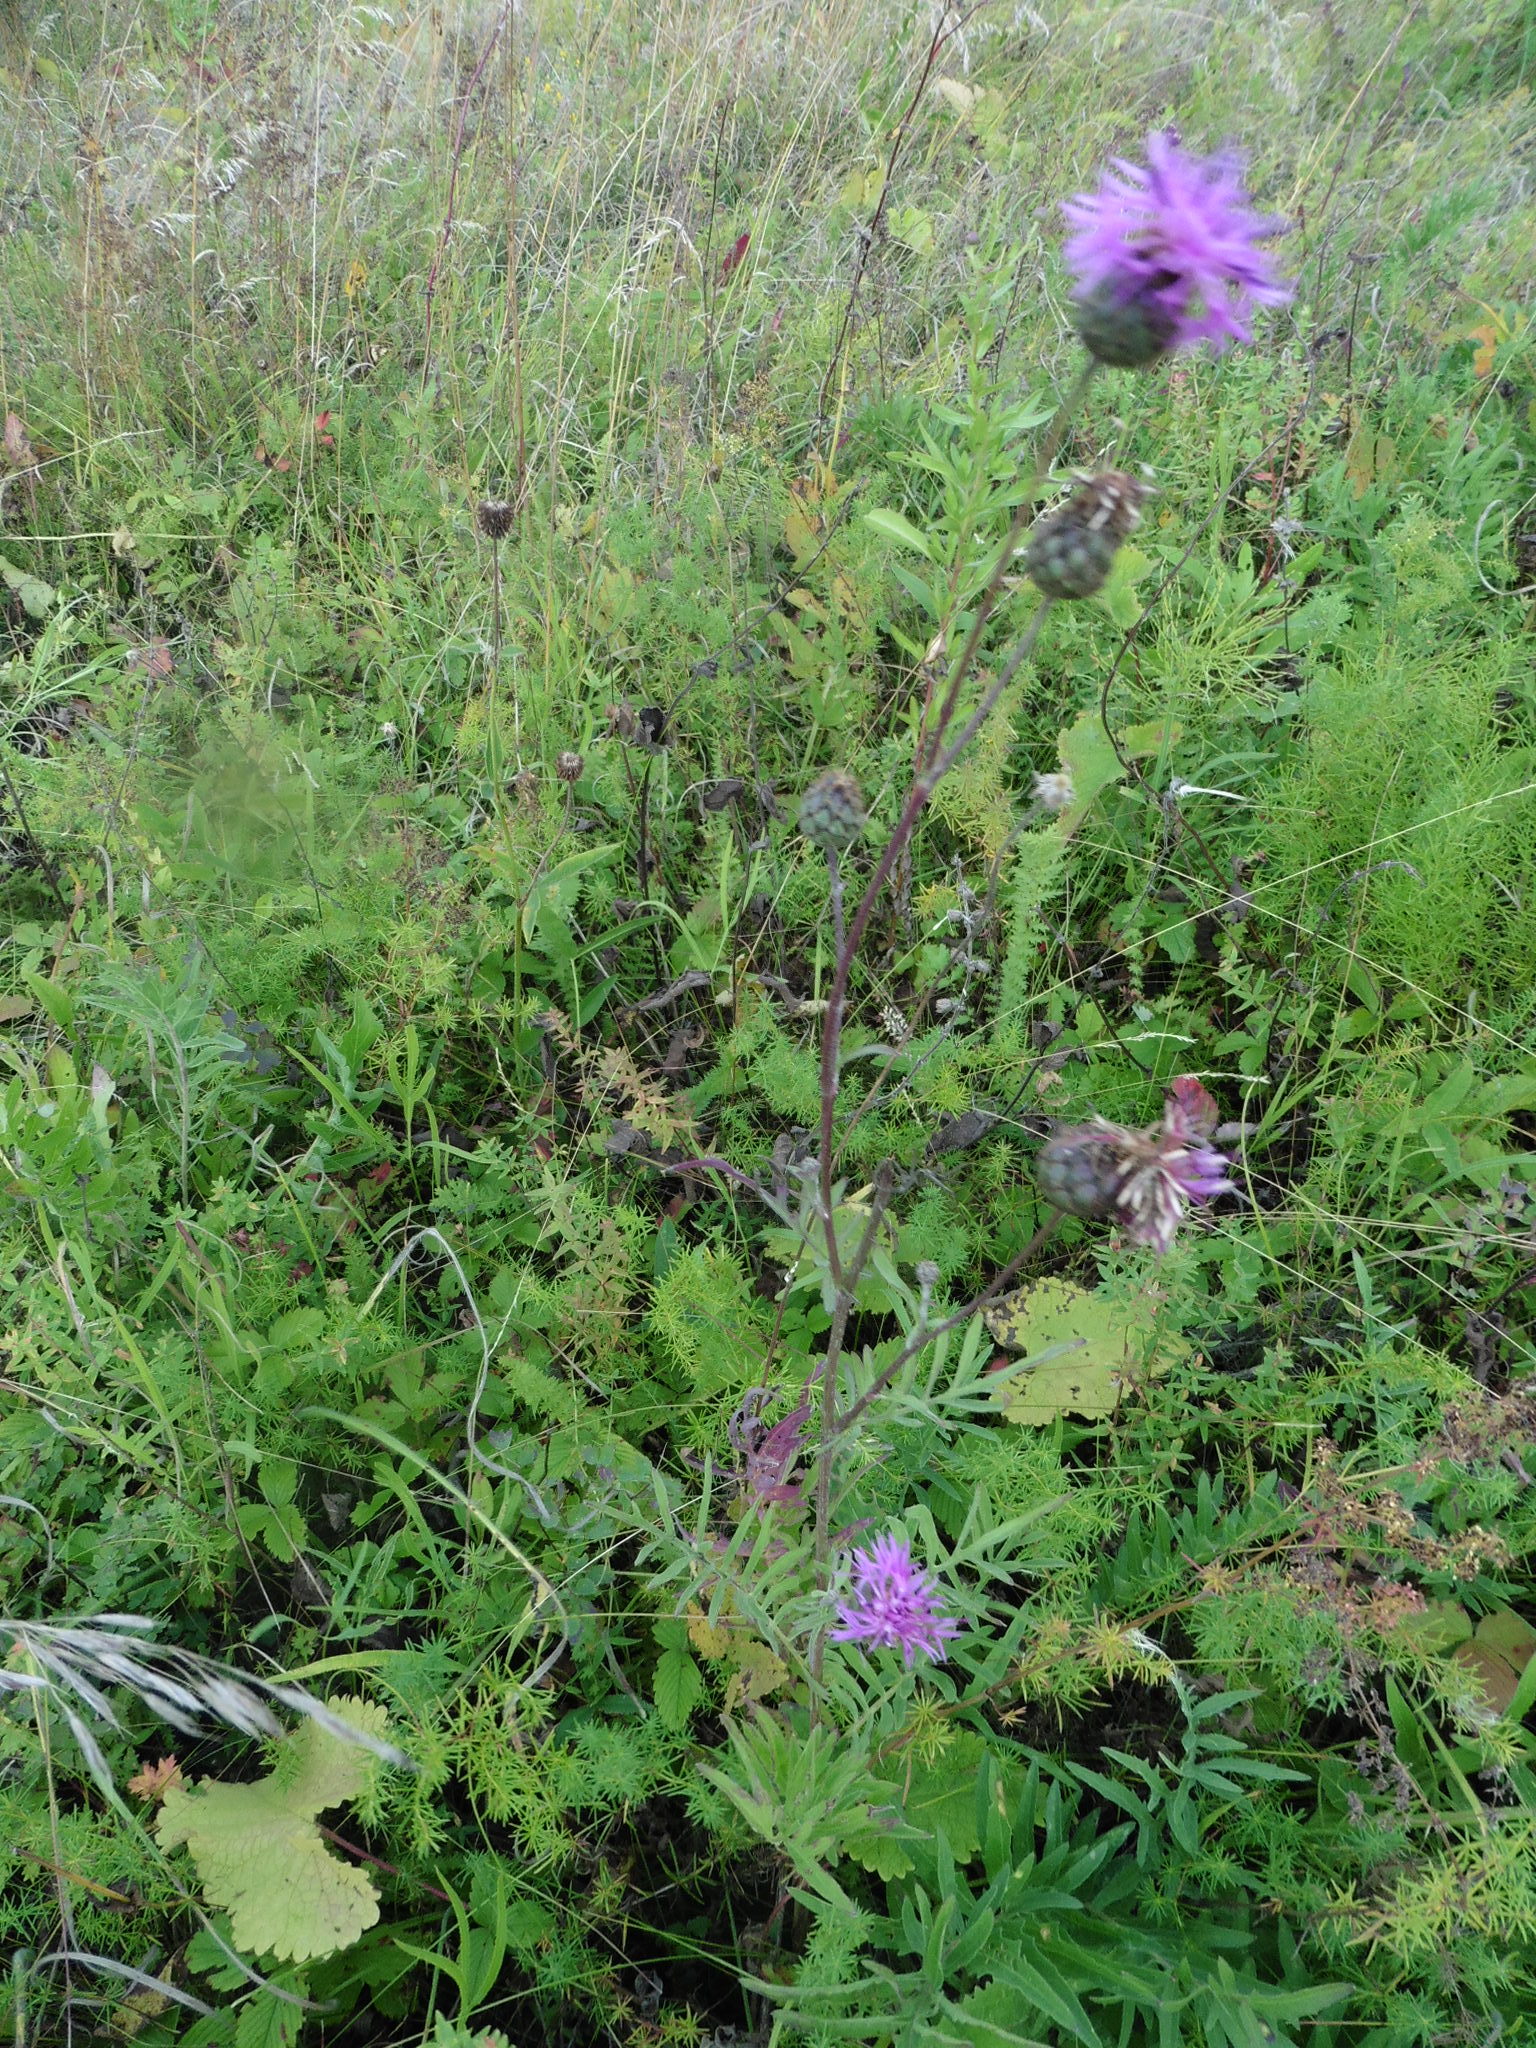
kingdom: Plantae
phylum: Tracheophyta
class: Magnoliopsida
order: Asterales
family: Asteraceae
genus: Centaurea
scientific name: Centaurea scabiosa
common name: Greater knapweed
